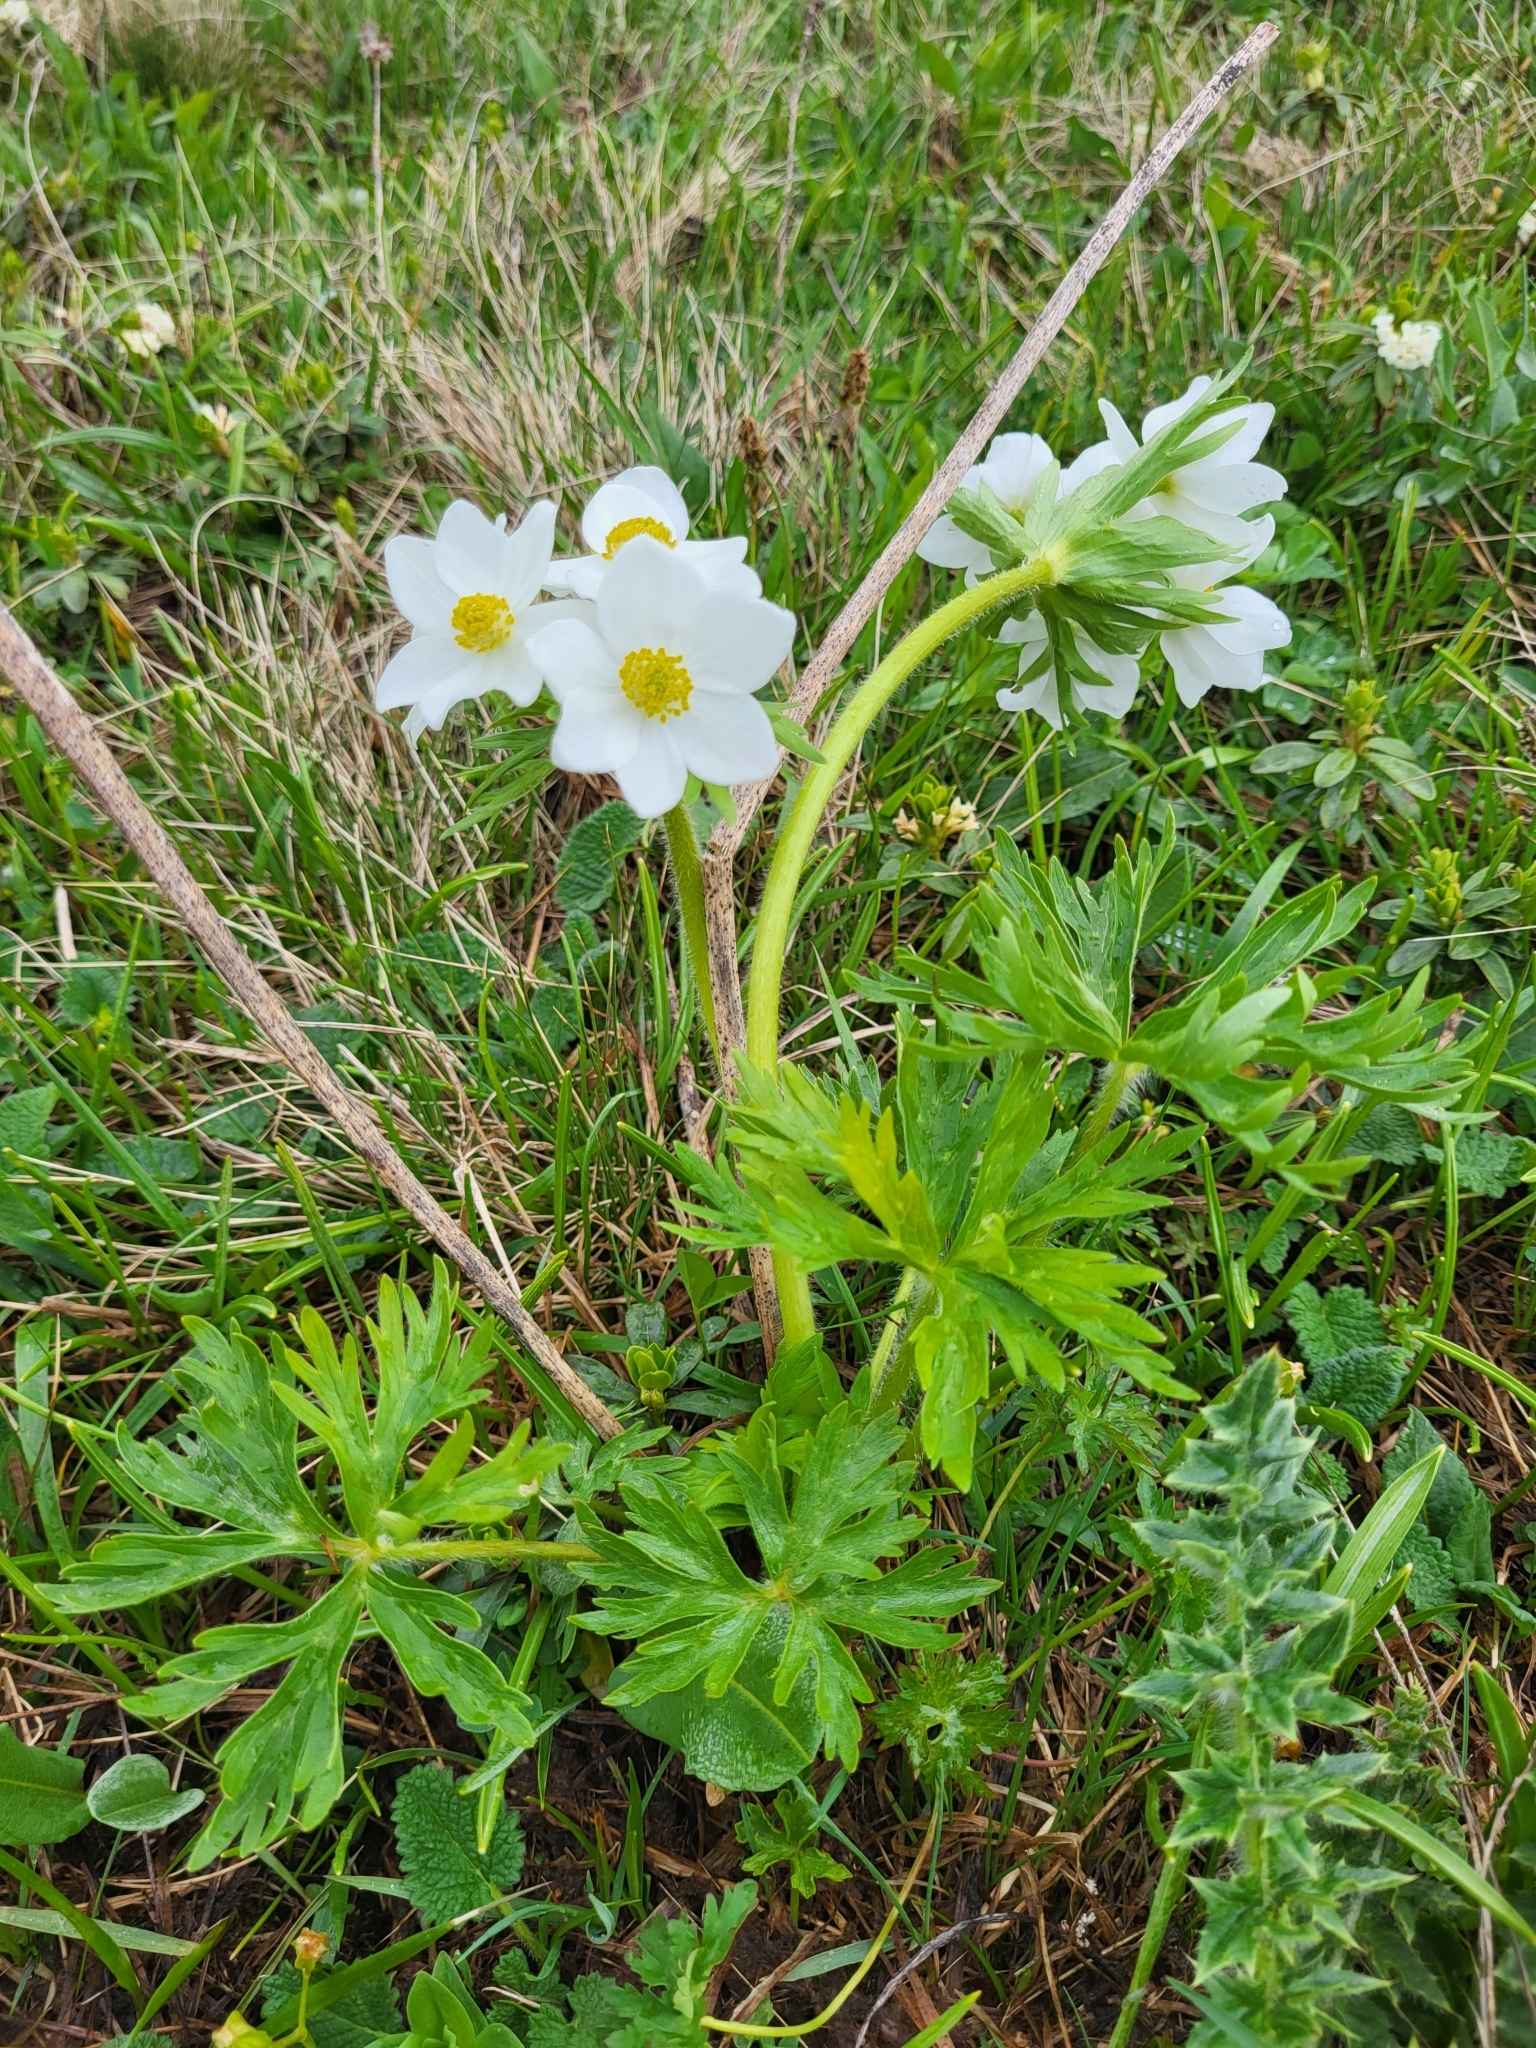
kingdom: Plantae
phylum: Tracheophyta
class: Magnoliopsida
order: Ranunculales
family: Ranunculaceae
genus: Anemonastrum
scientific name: Anemonastrum narcissiflorum
